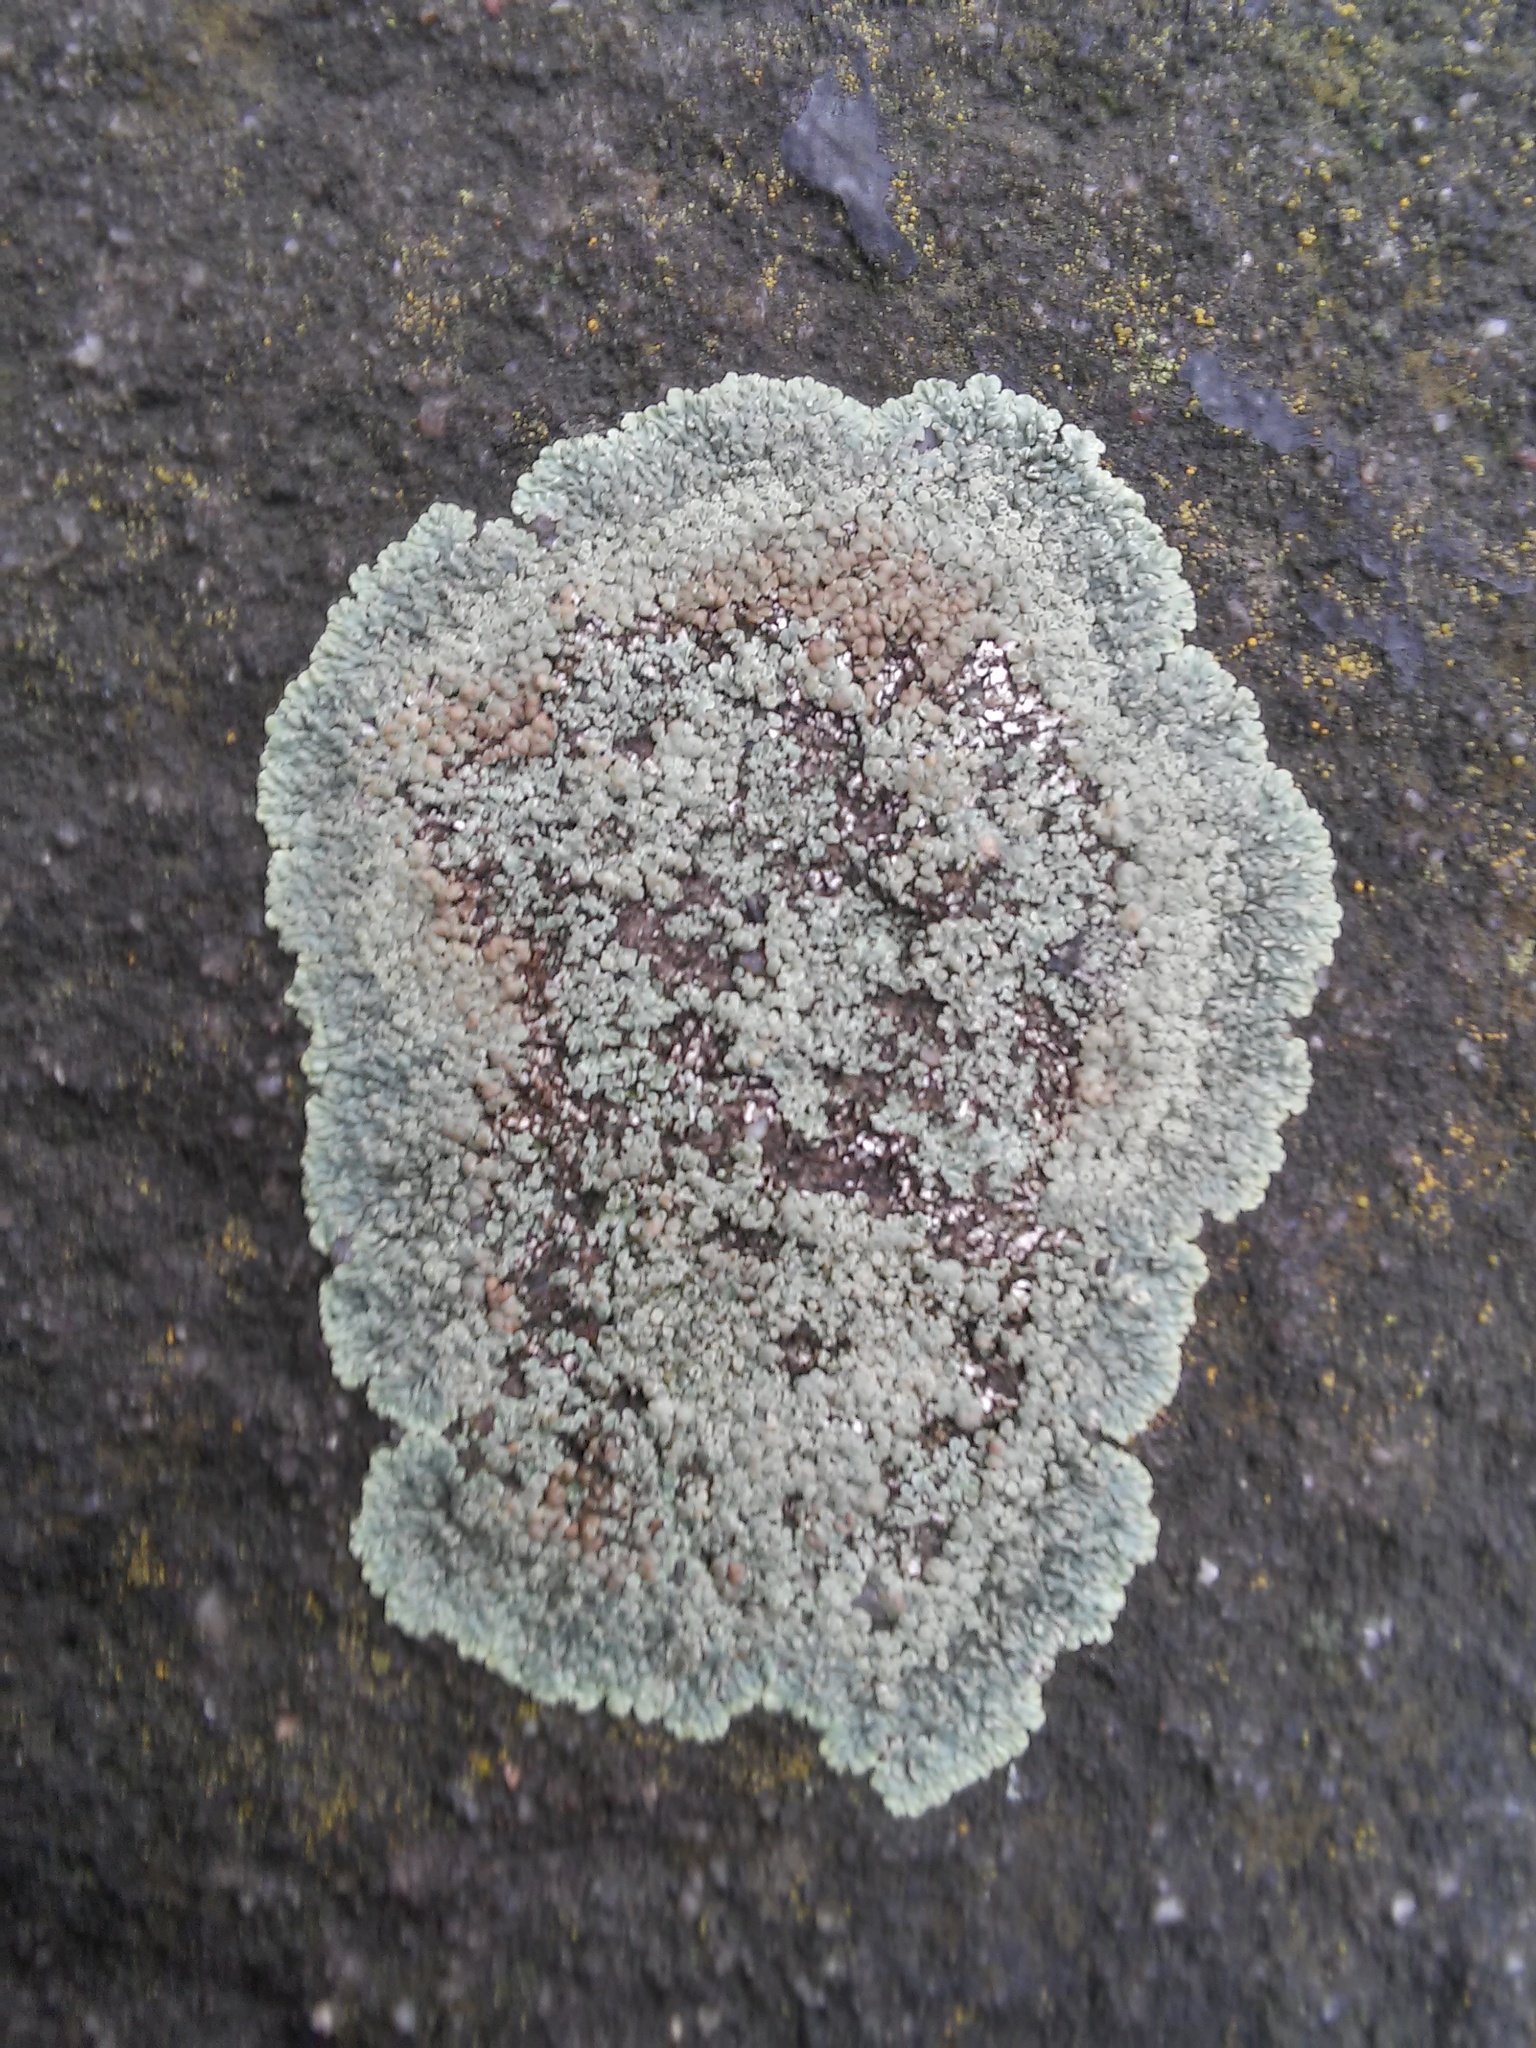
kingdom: Fungi
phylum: Ascomycota
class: Lecanoromycetes
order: Lecanorales
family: Lecanoraceae
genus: Protoparmeliopsis
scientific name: Protoparmeliopsis muralis
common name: Stonewall rim lichen
